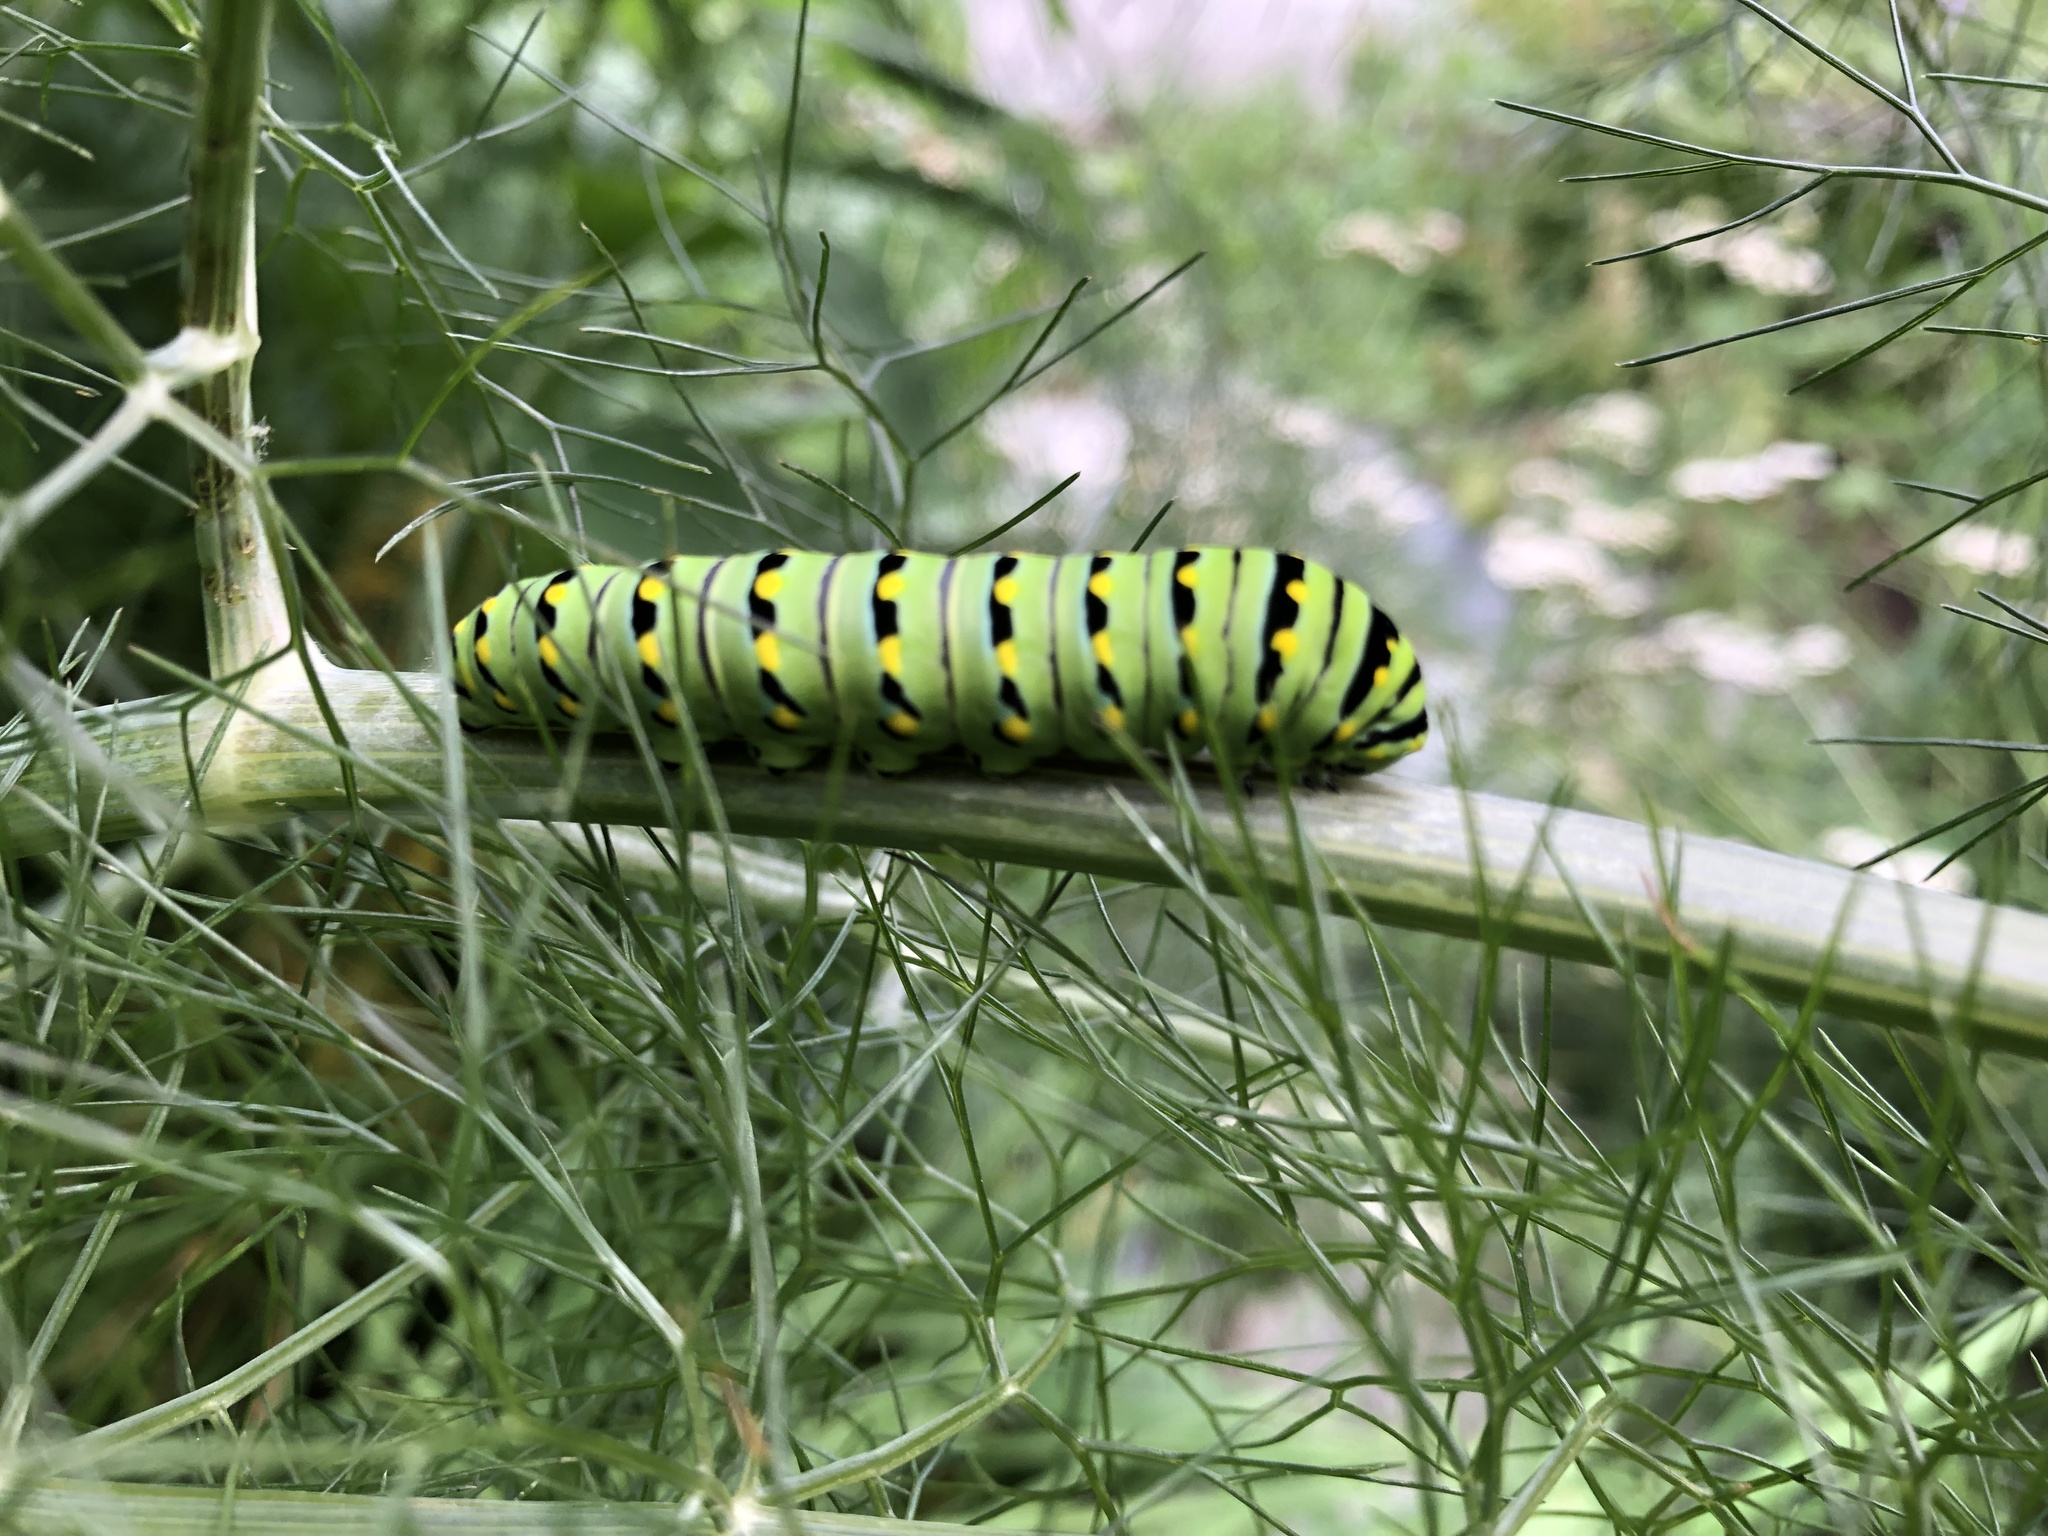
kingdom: Animalia
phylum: Arthropoda
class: Insecta
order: Lepidoptera
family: Papilionidae
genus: Papilio
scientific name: Papilio polyxenes
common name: Black swallowtail
